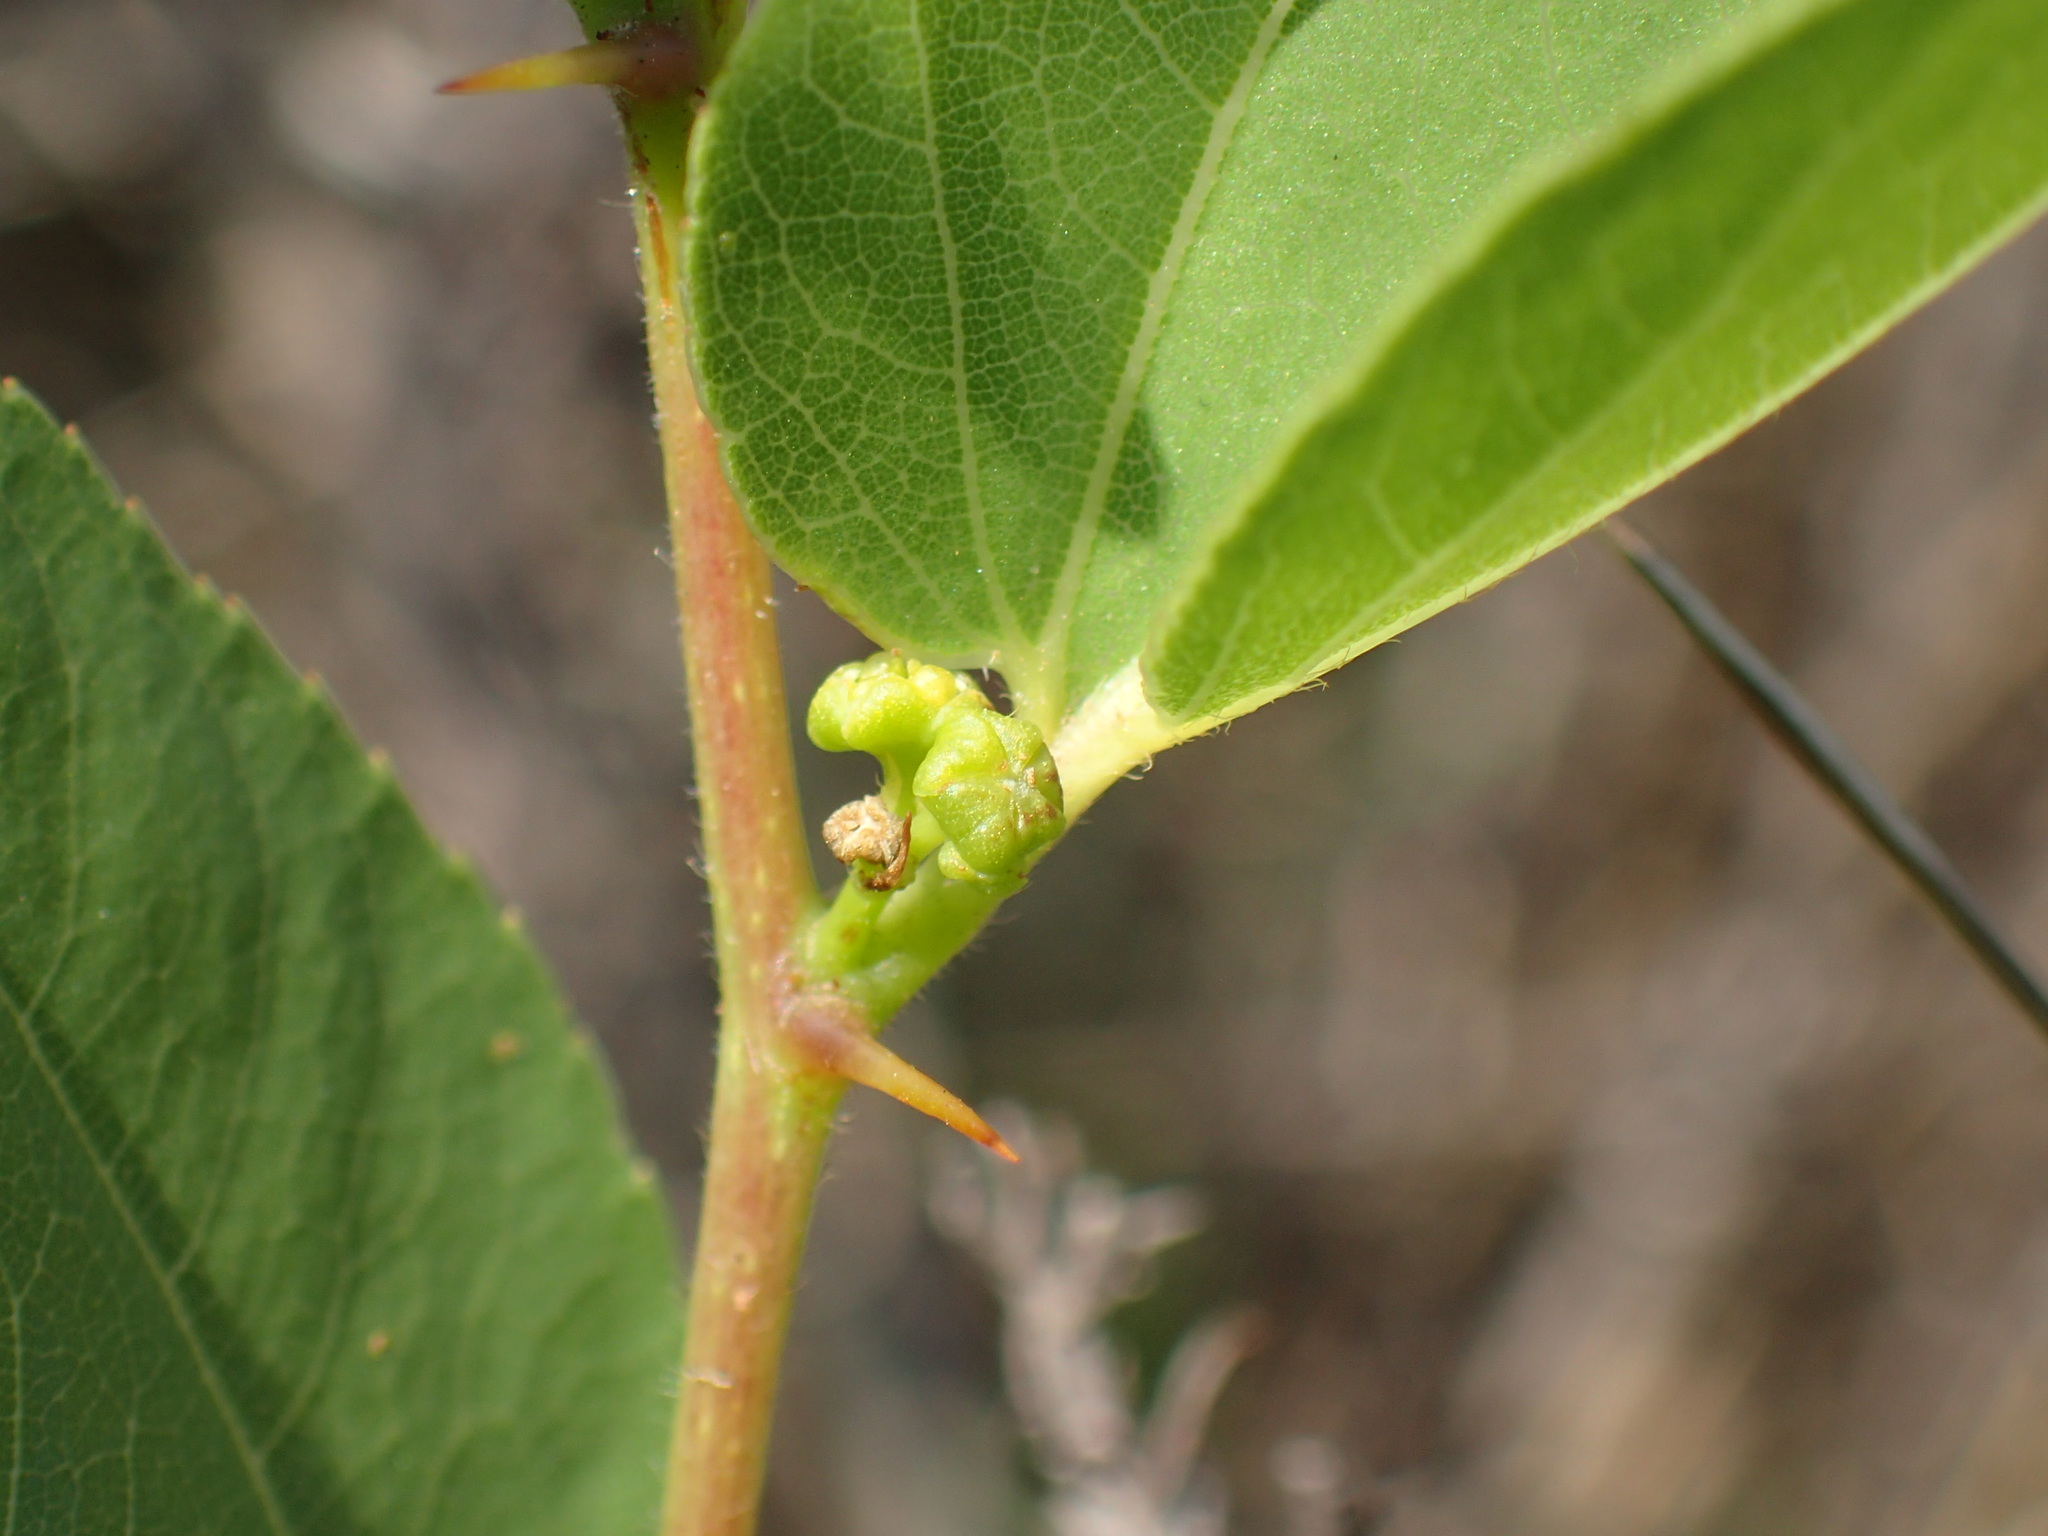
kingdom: Plantae
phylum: Tracheophyta
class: Magnoliopsida
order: Rosales
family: Rhamnaceae
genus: Ziziphus
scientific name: Ziziphus zeyheriana
